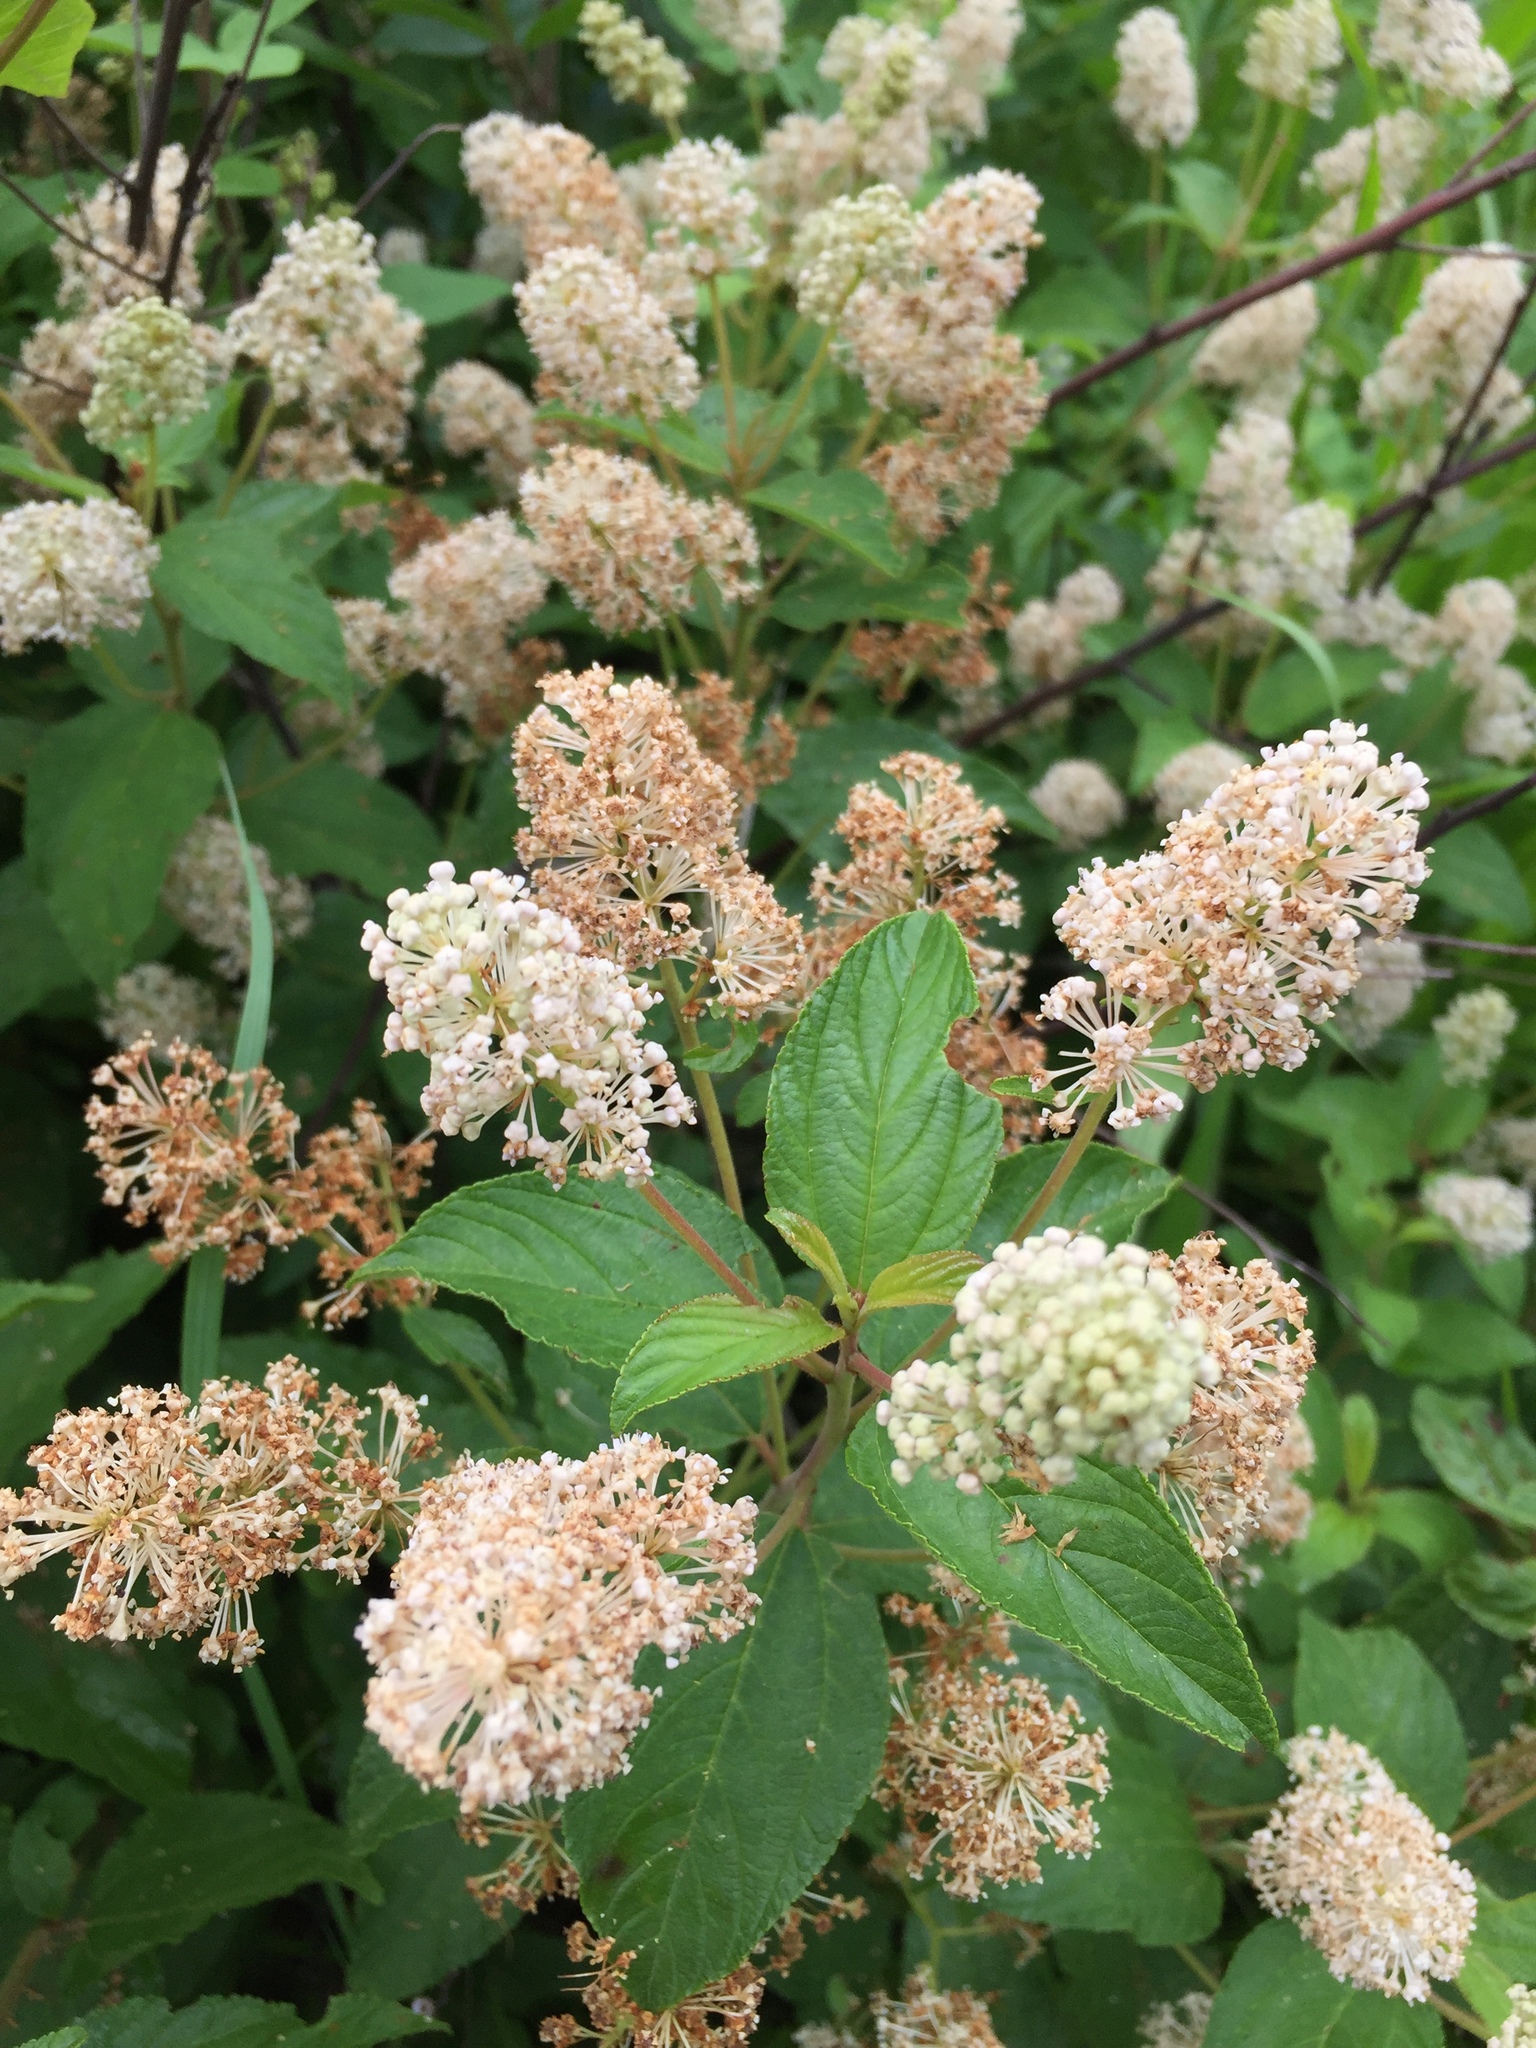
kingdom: Plantae
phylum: Tracheophyta
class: Magnoliopsida
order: Rosales
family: Rhamnaceae
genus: Ceanothus
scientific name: Ceanothus americanus
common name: Redroot
